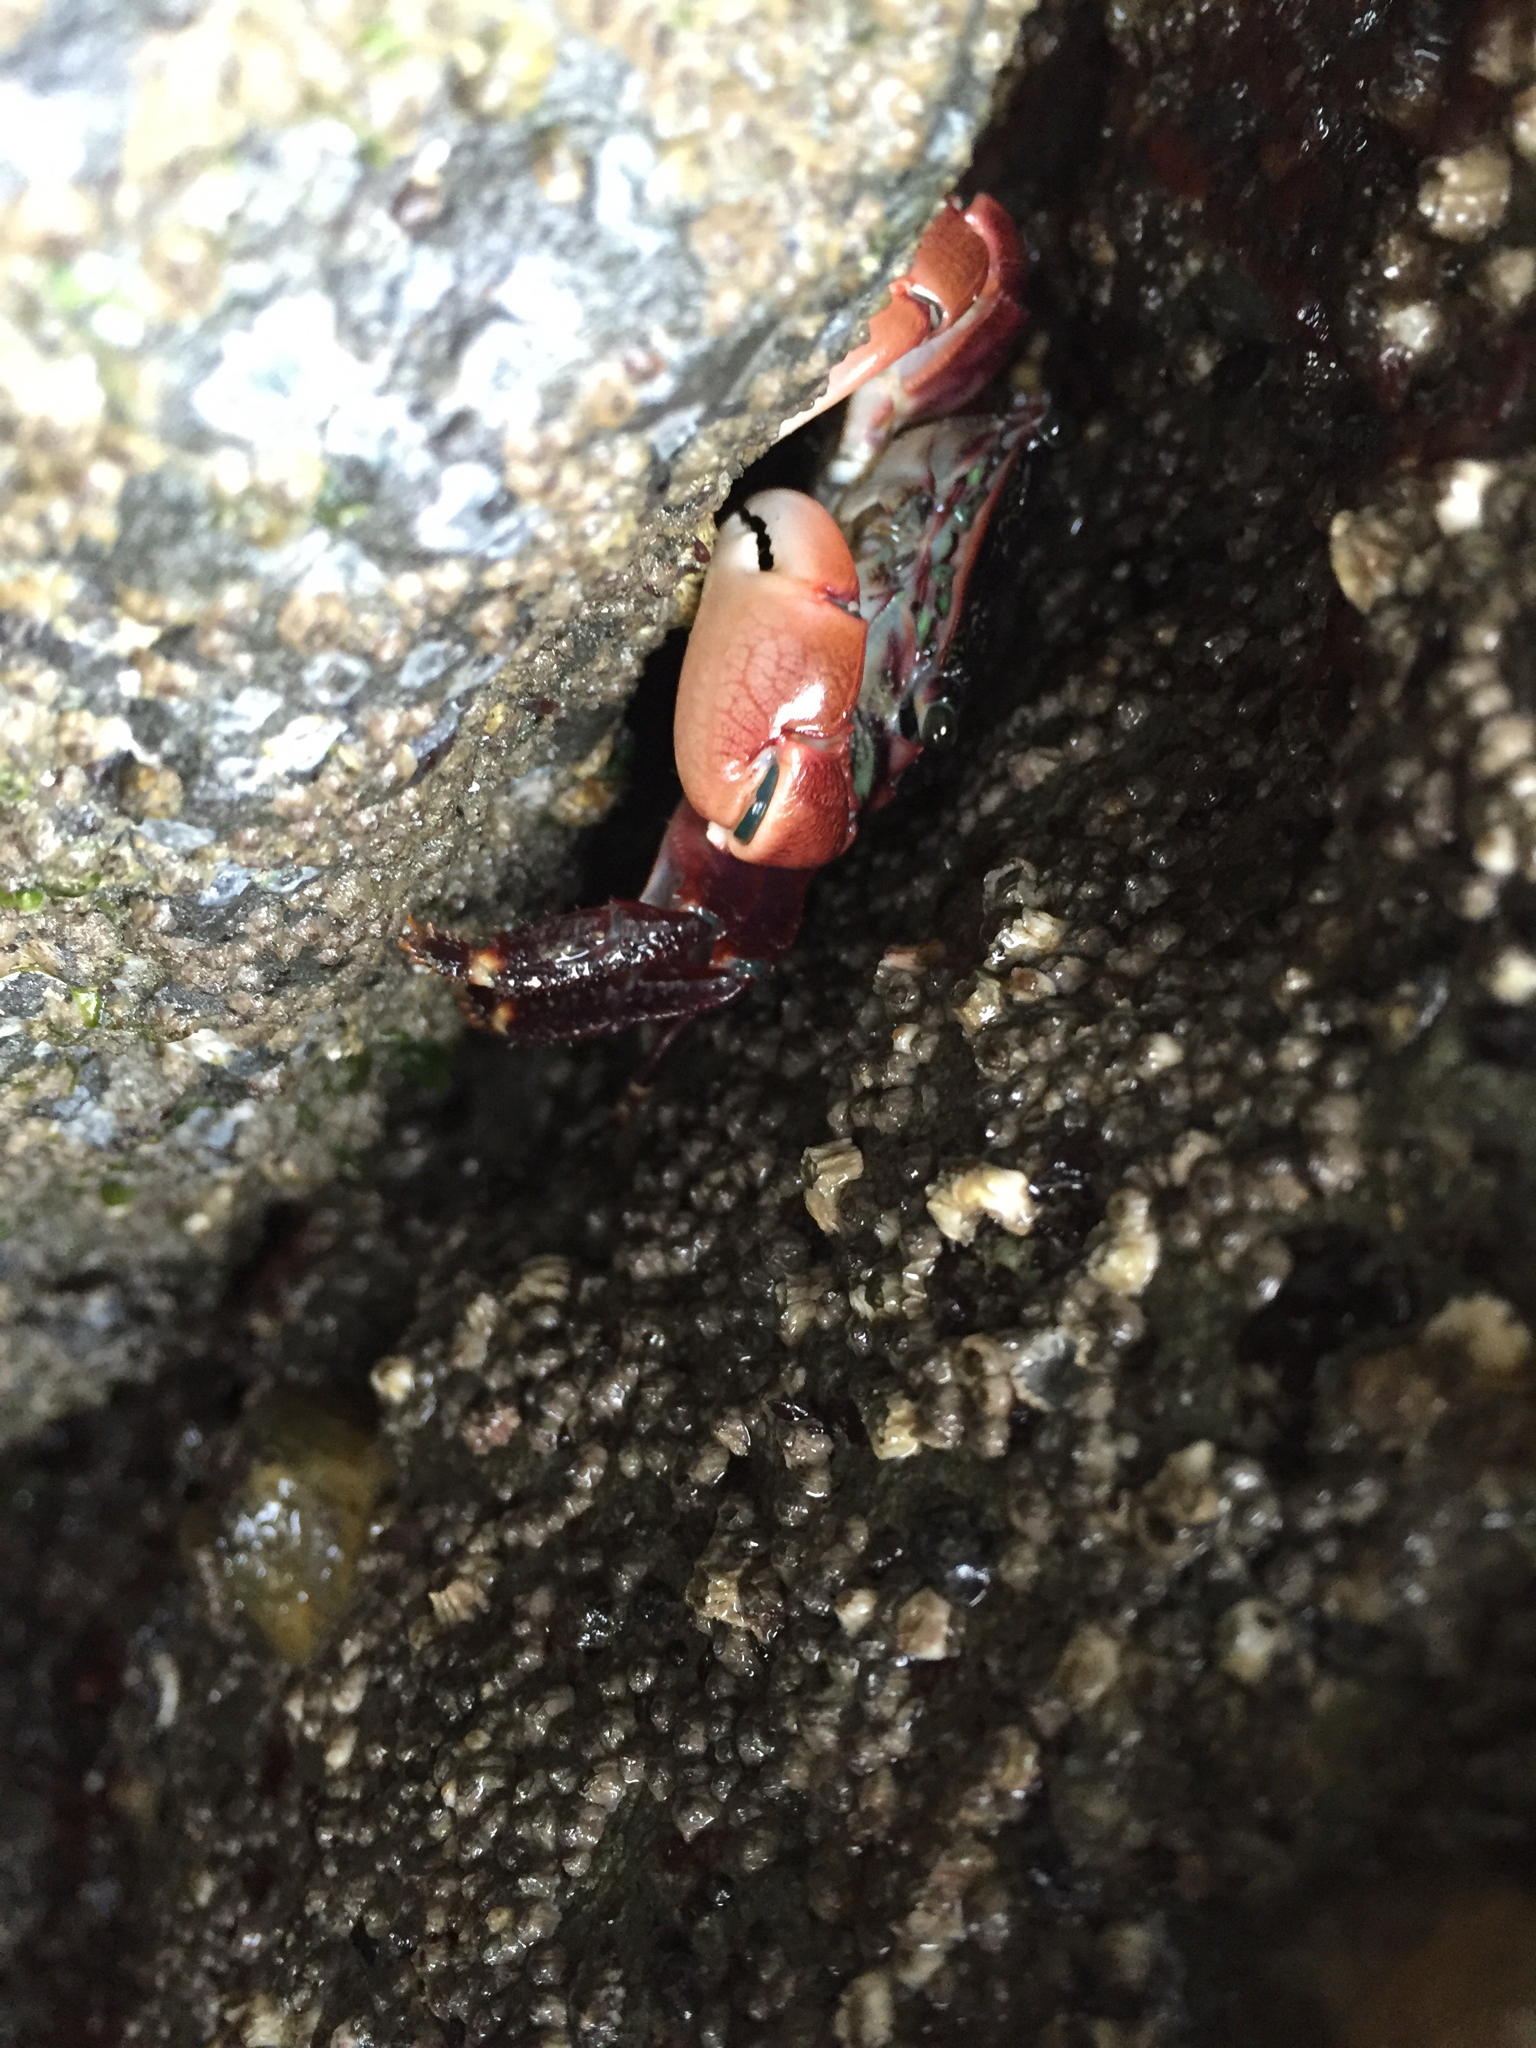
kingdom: Animalia
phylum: Arthropoda
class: Malacostraca
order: Decapoda
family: Grapsidae
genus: Pachygrapsus
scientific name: Pachygrapsus crassipes
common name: Striped shore crab
